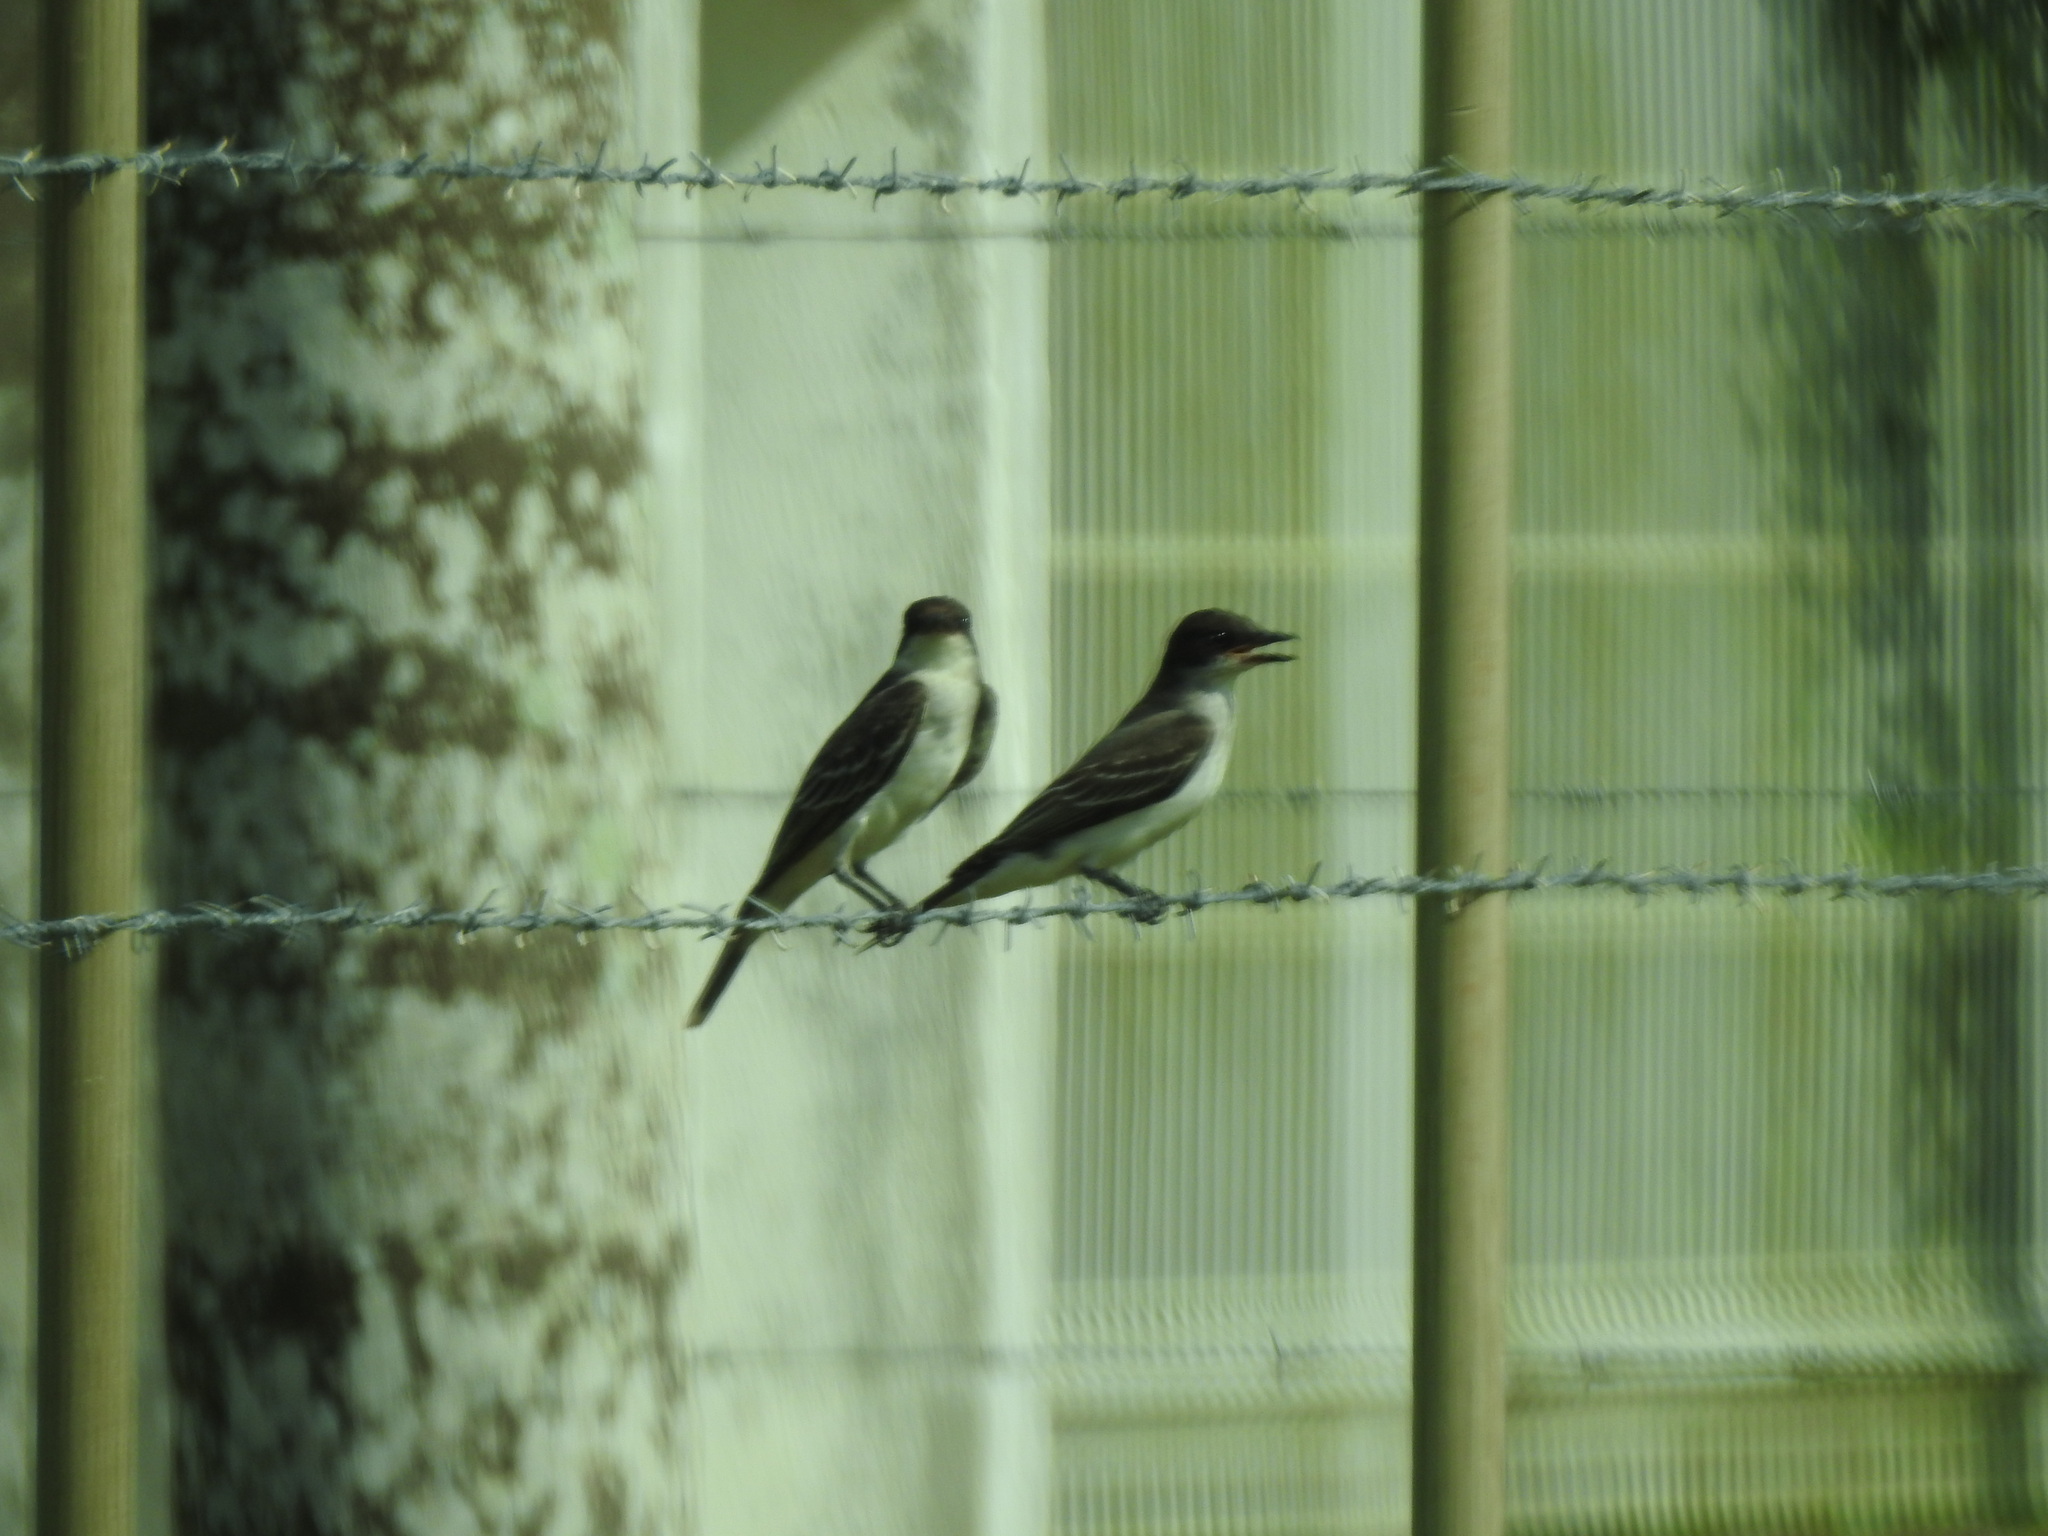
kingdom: Animalia
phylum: Chordata
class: Aves
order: Passeriformes
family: Tyrannidae
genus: Tyrannus
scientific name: Tyrannus tyrannus
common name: Eastern kingbird
